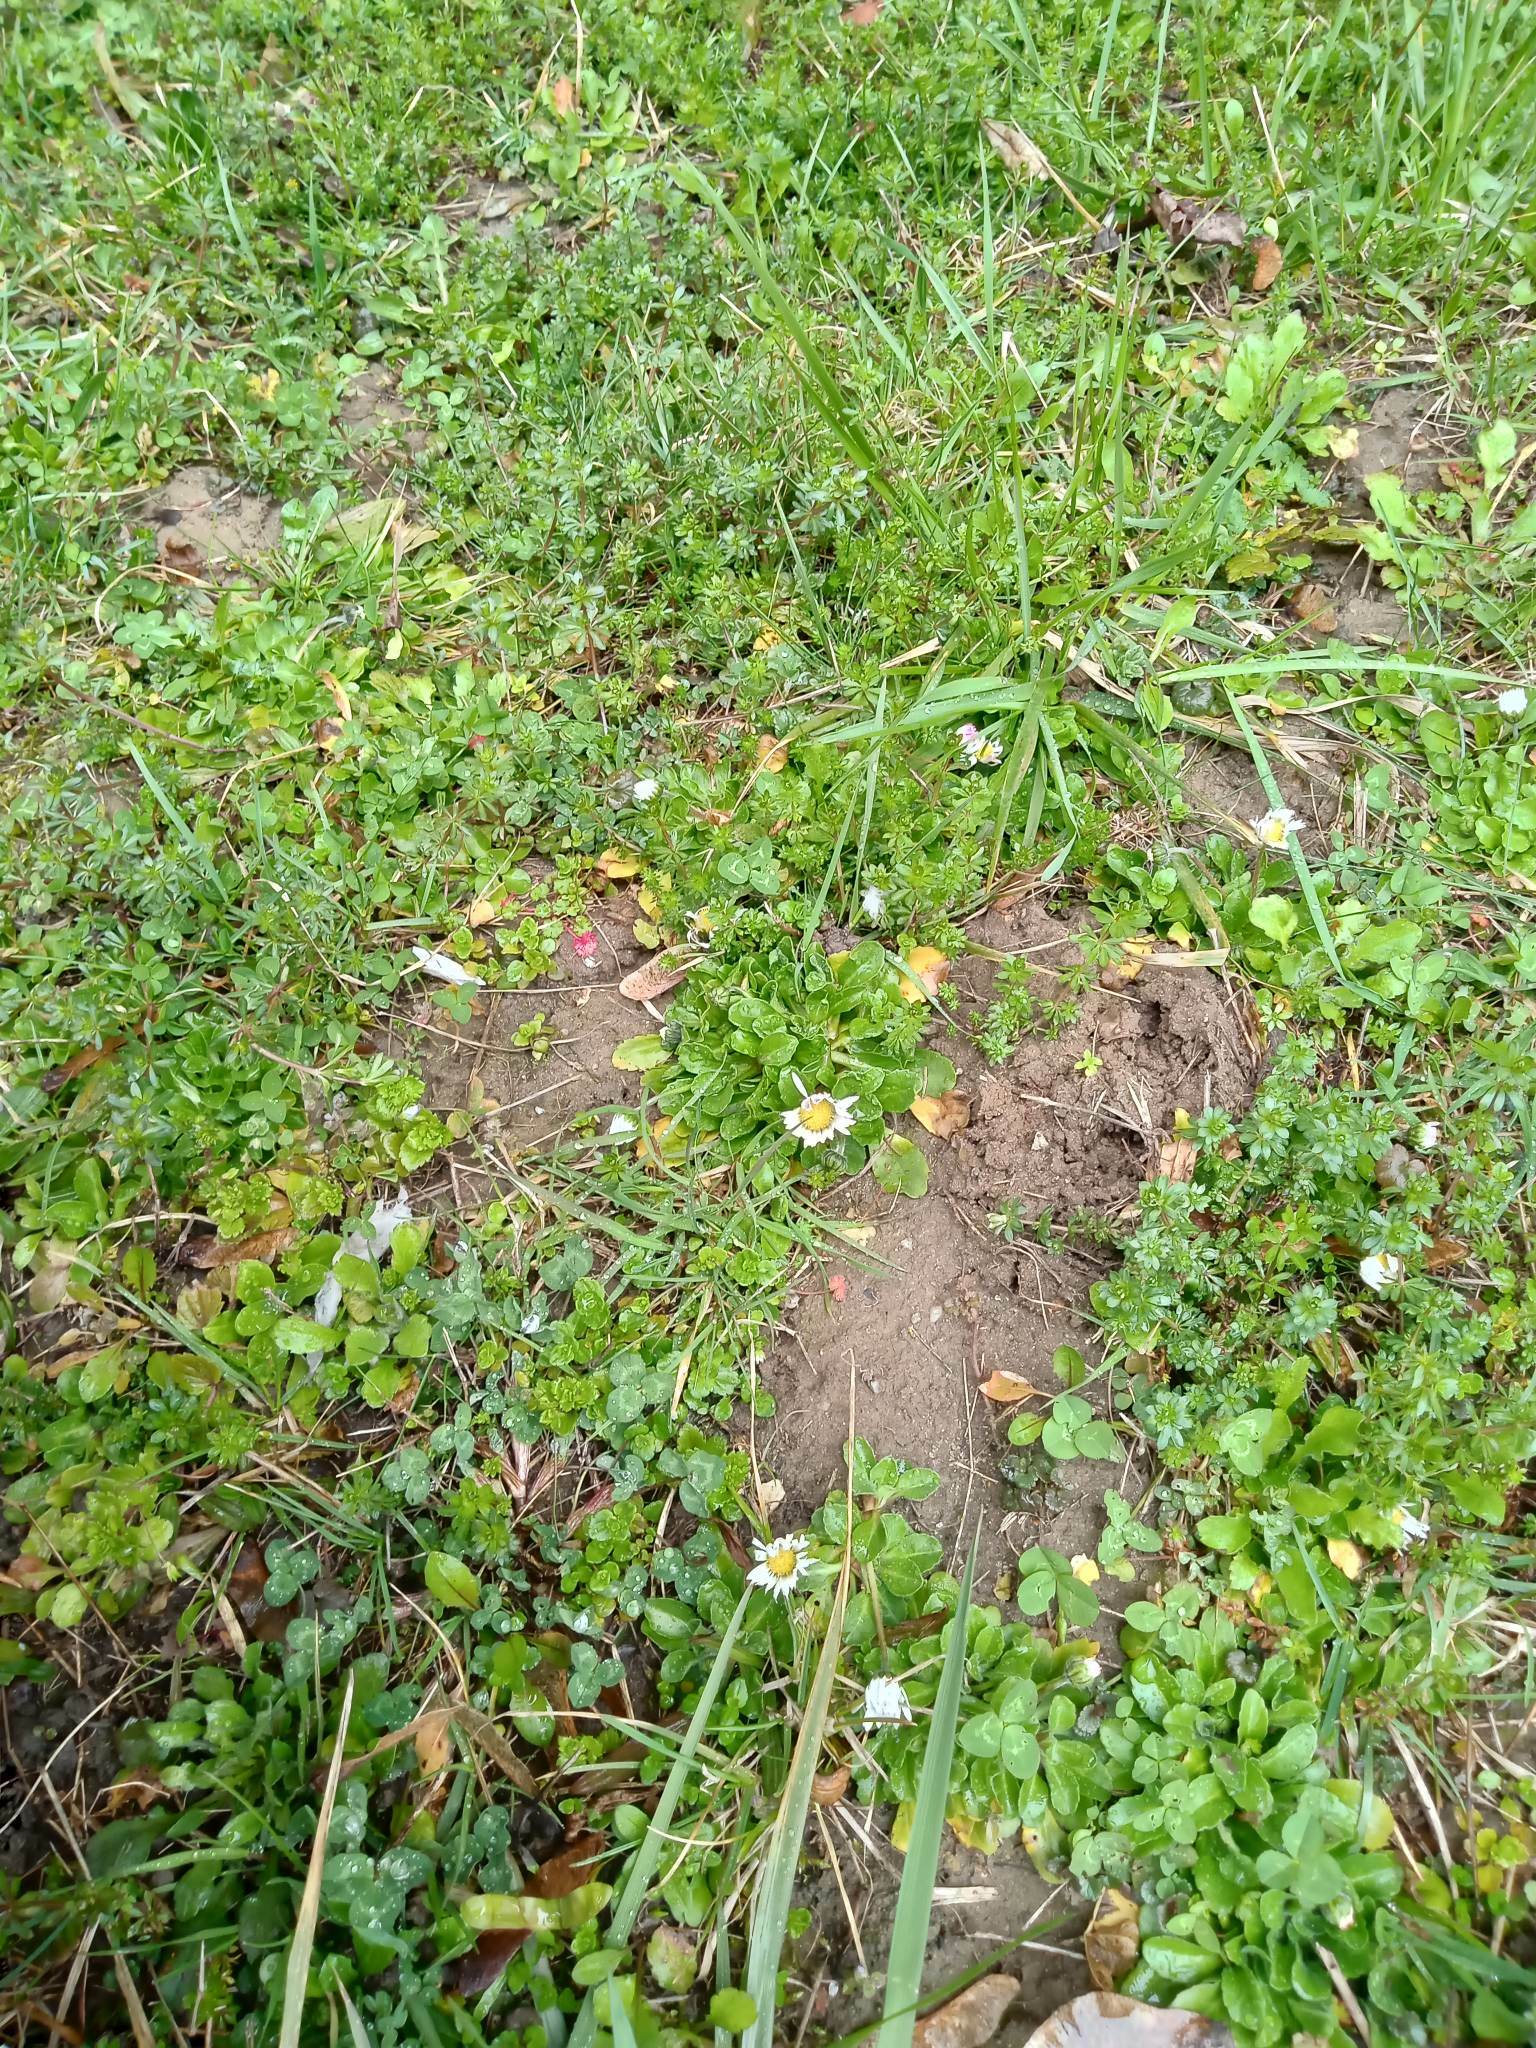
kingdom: Plantae
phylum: Tracheophyta
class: Magnoliopsida
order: Asterales
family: Asteraceae
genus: Bellis
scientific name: Bellis perennis
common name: Lawndaisy
